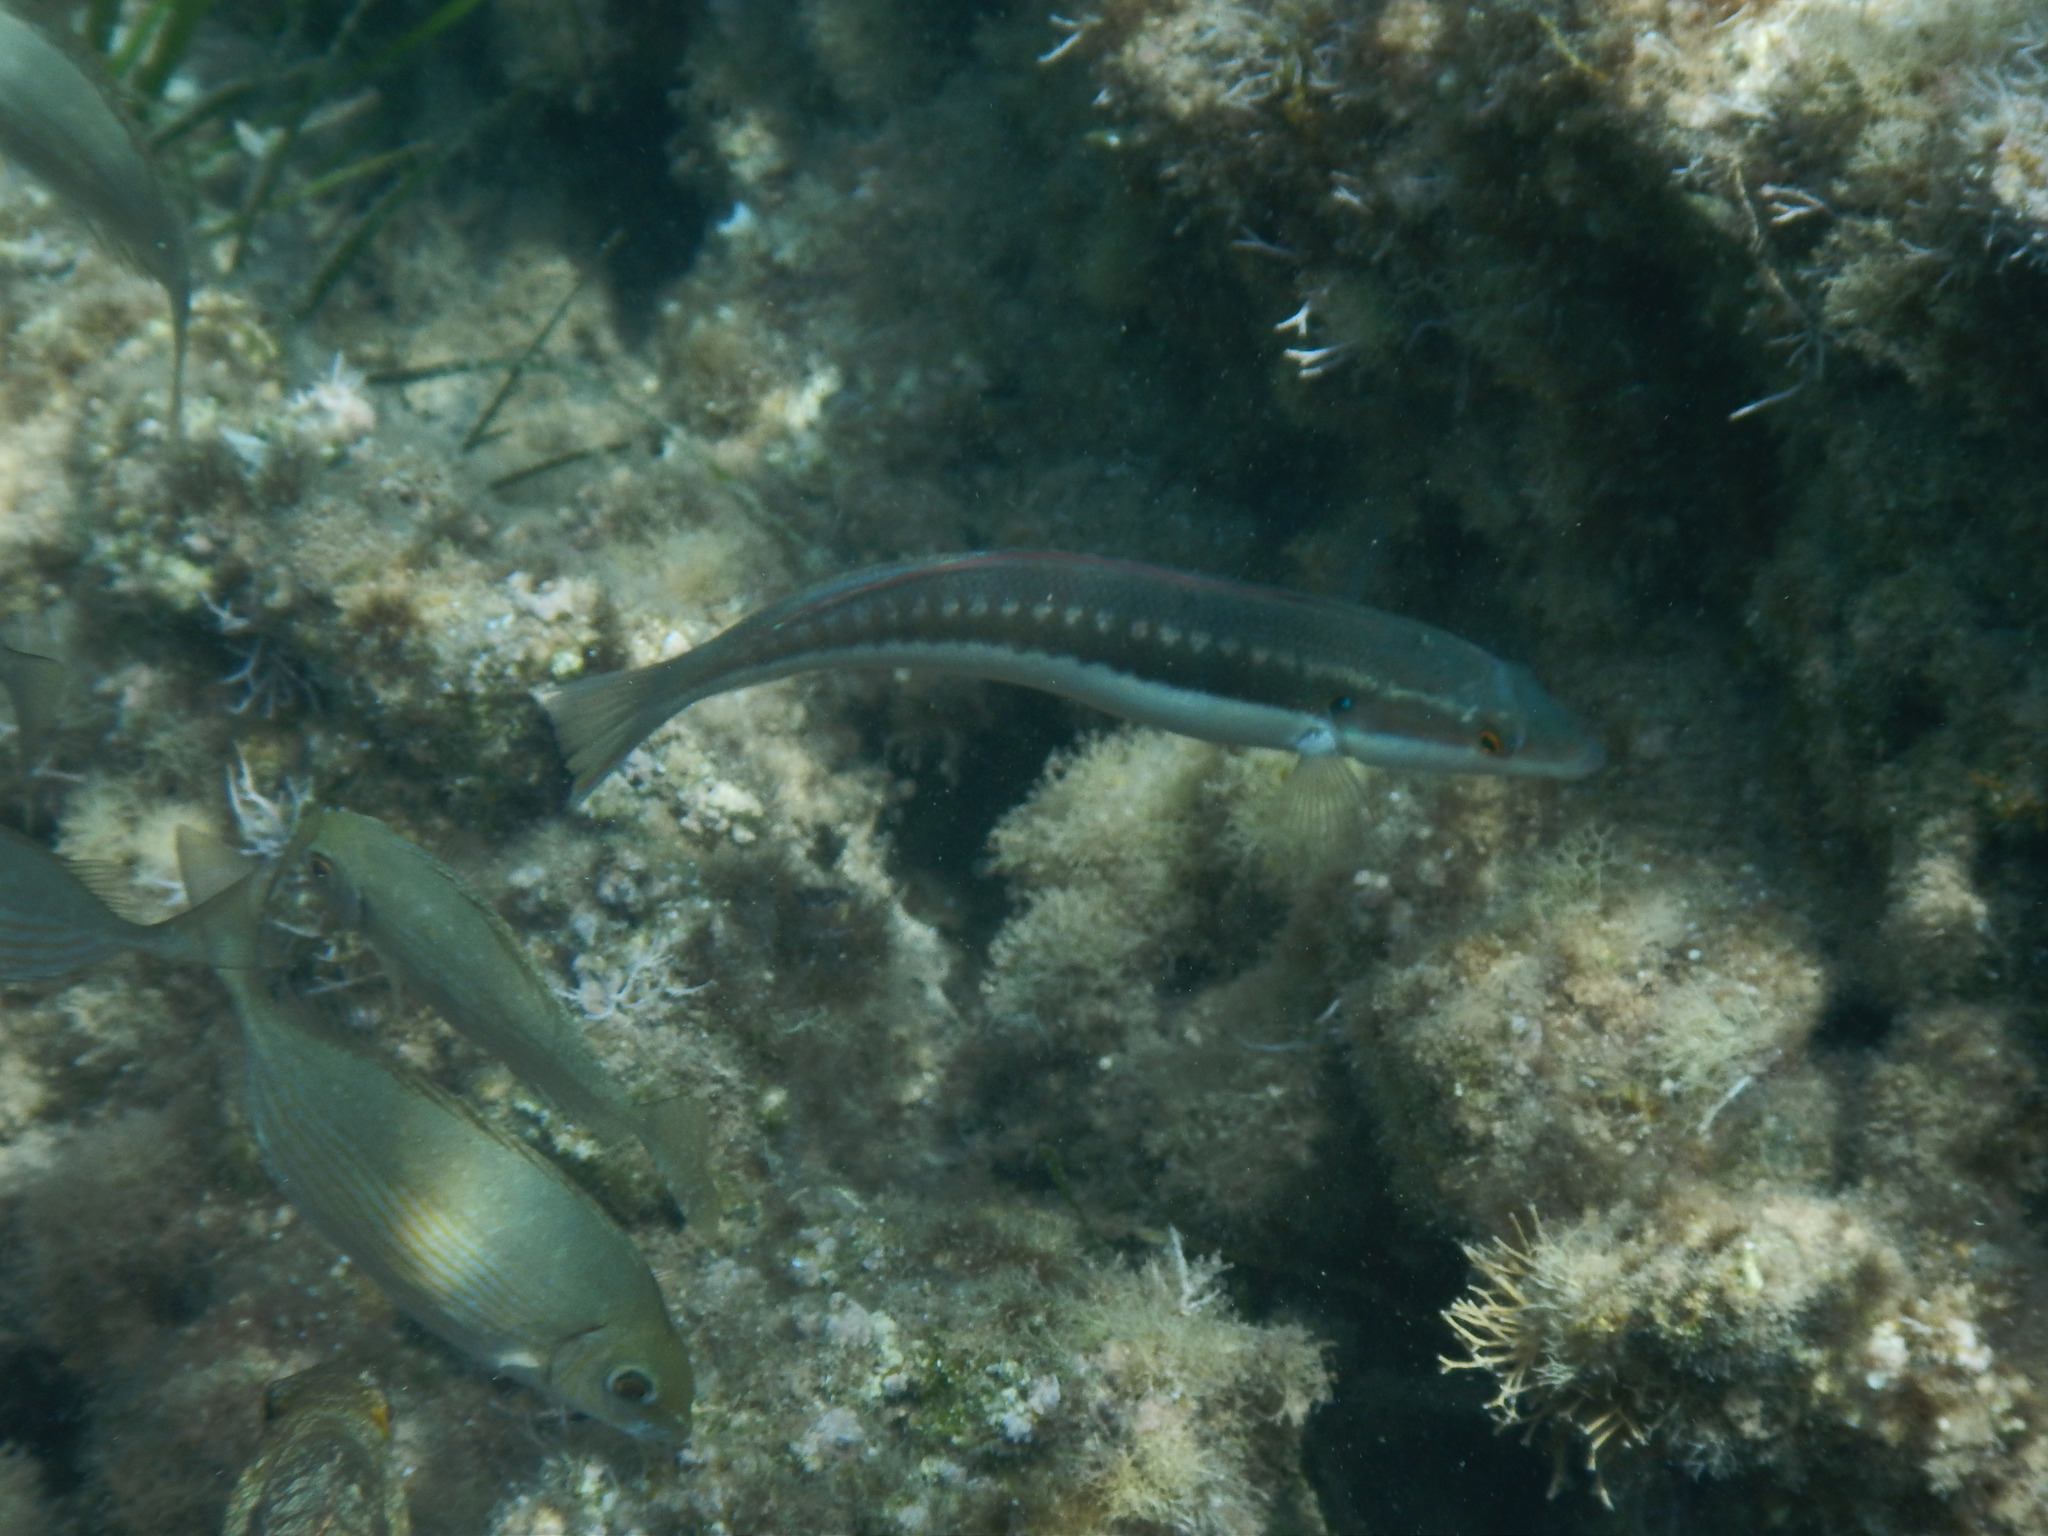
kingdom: Animalia
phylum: Chordata
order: Perciformes
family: Labridae
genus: Coris
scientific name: Coris julis
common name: Rainbow wrasse
